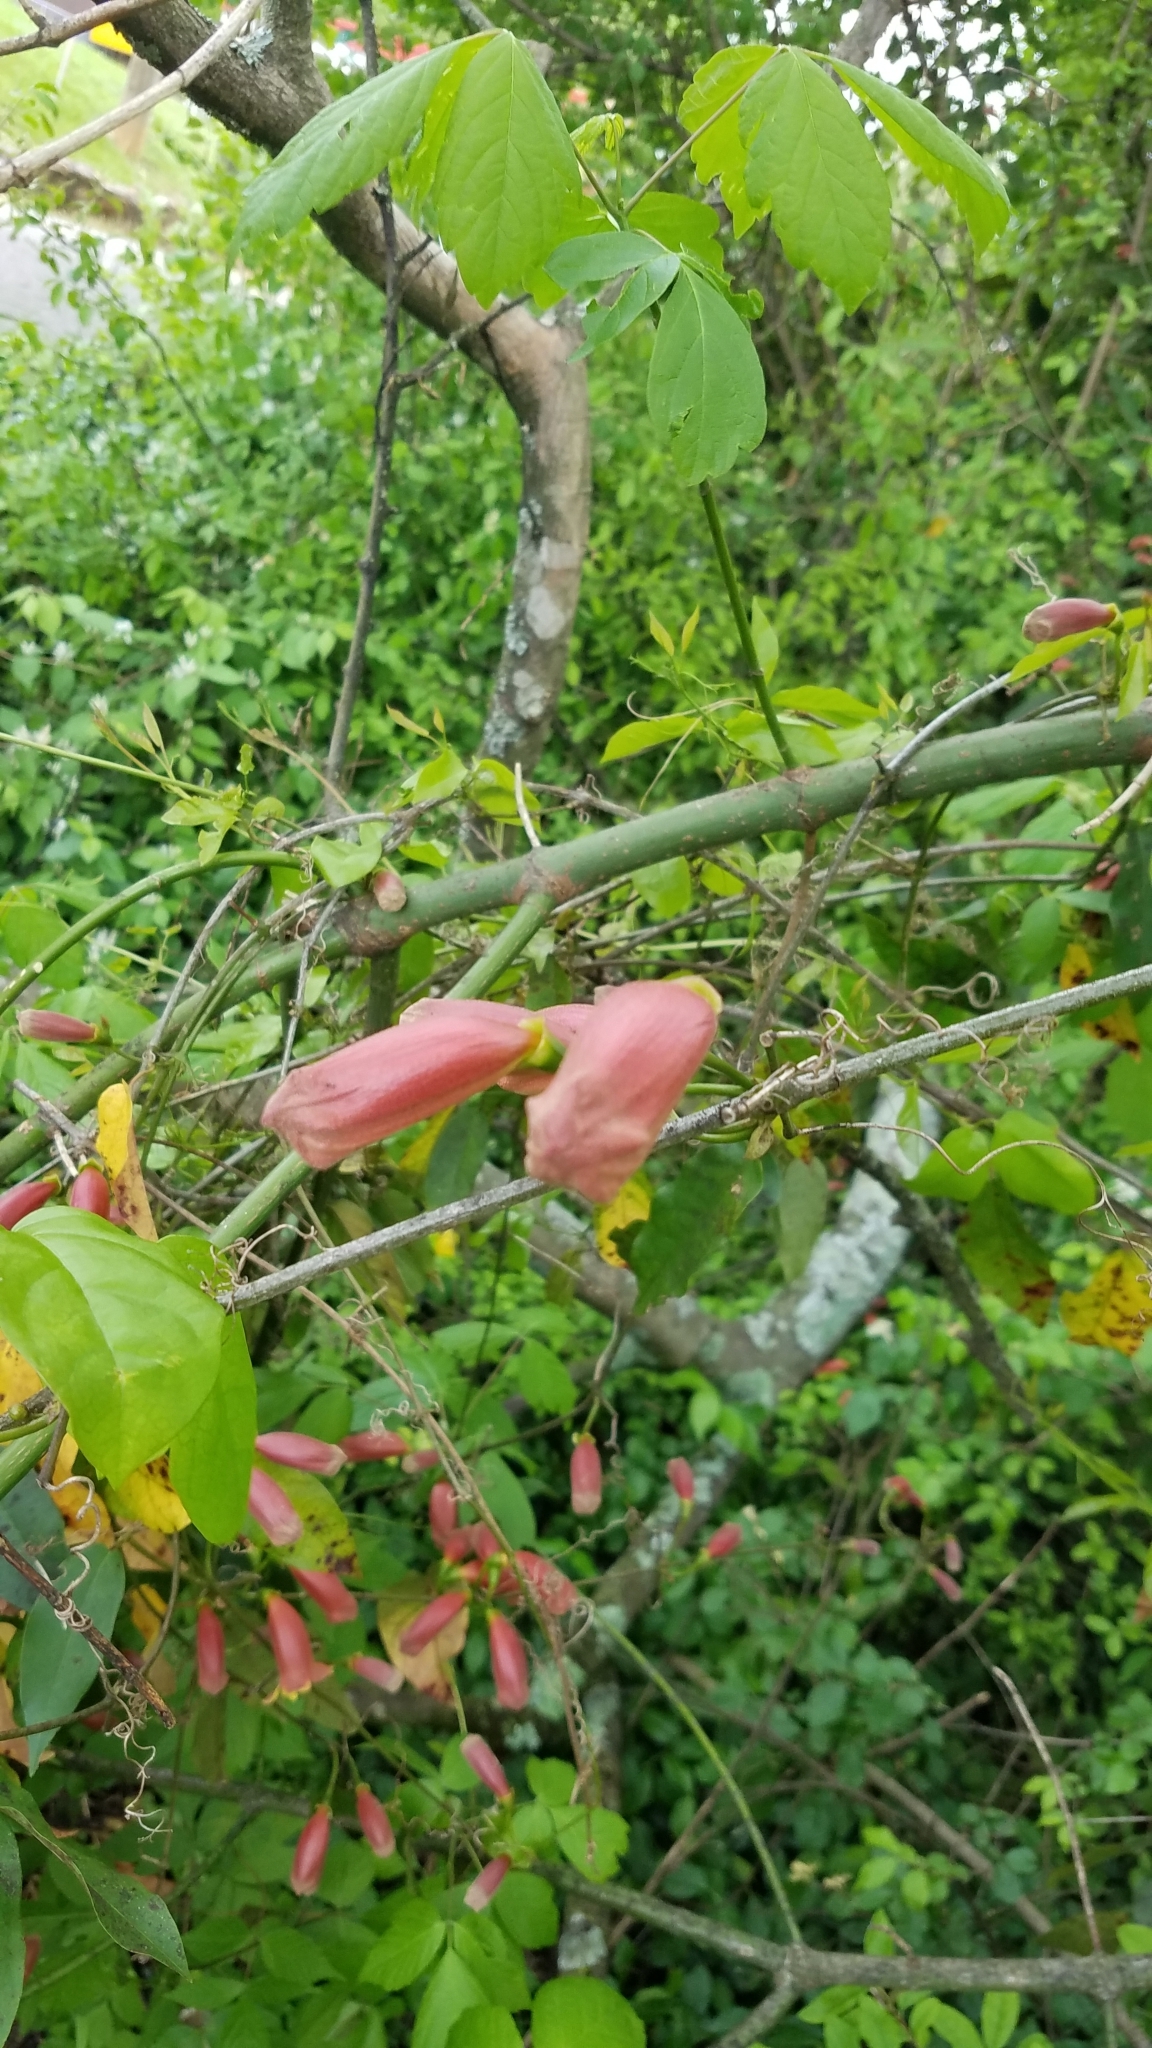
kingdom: Plantae
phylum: Tracheophyta
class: Magnoliopsida
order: Lamiales
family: Bignoniaceae
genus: Bignonia
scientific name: Bignonia capreolata
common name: Crossvine
